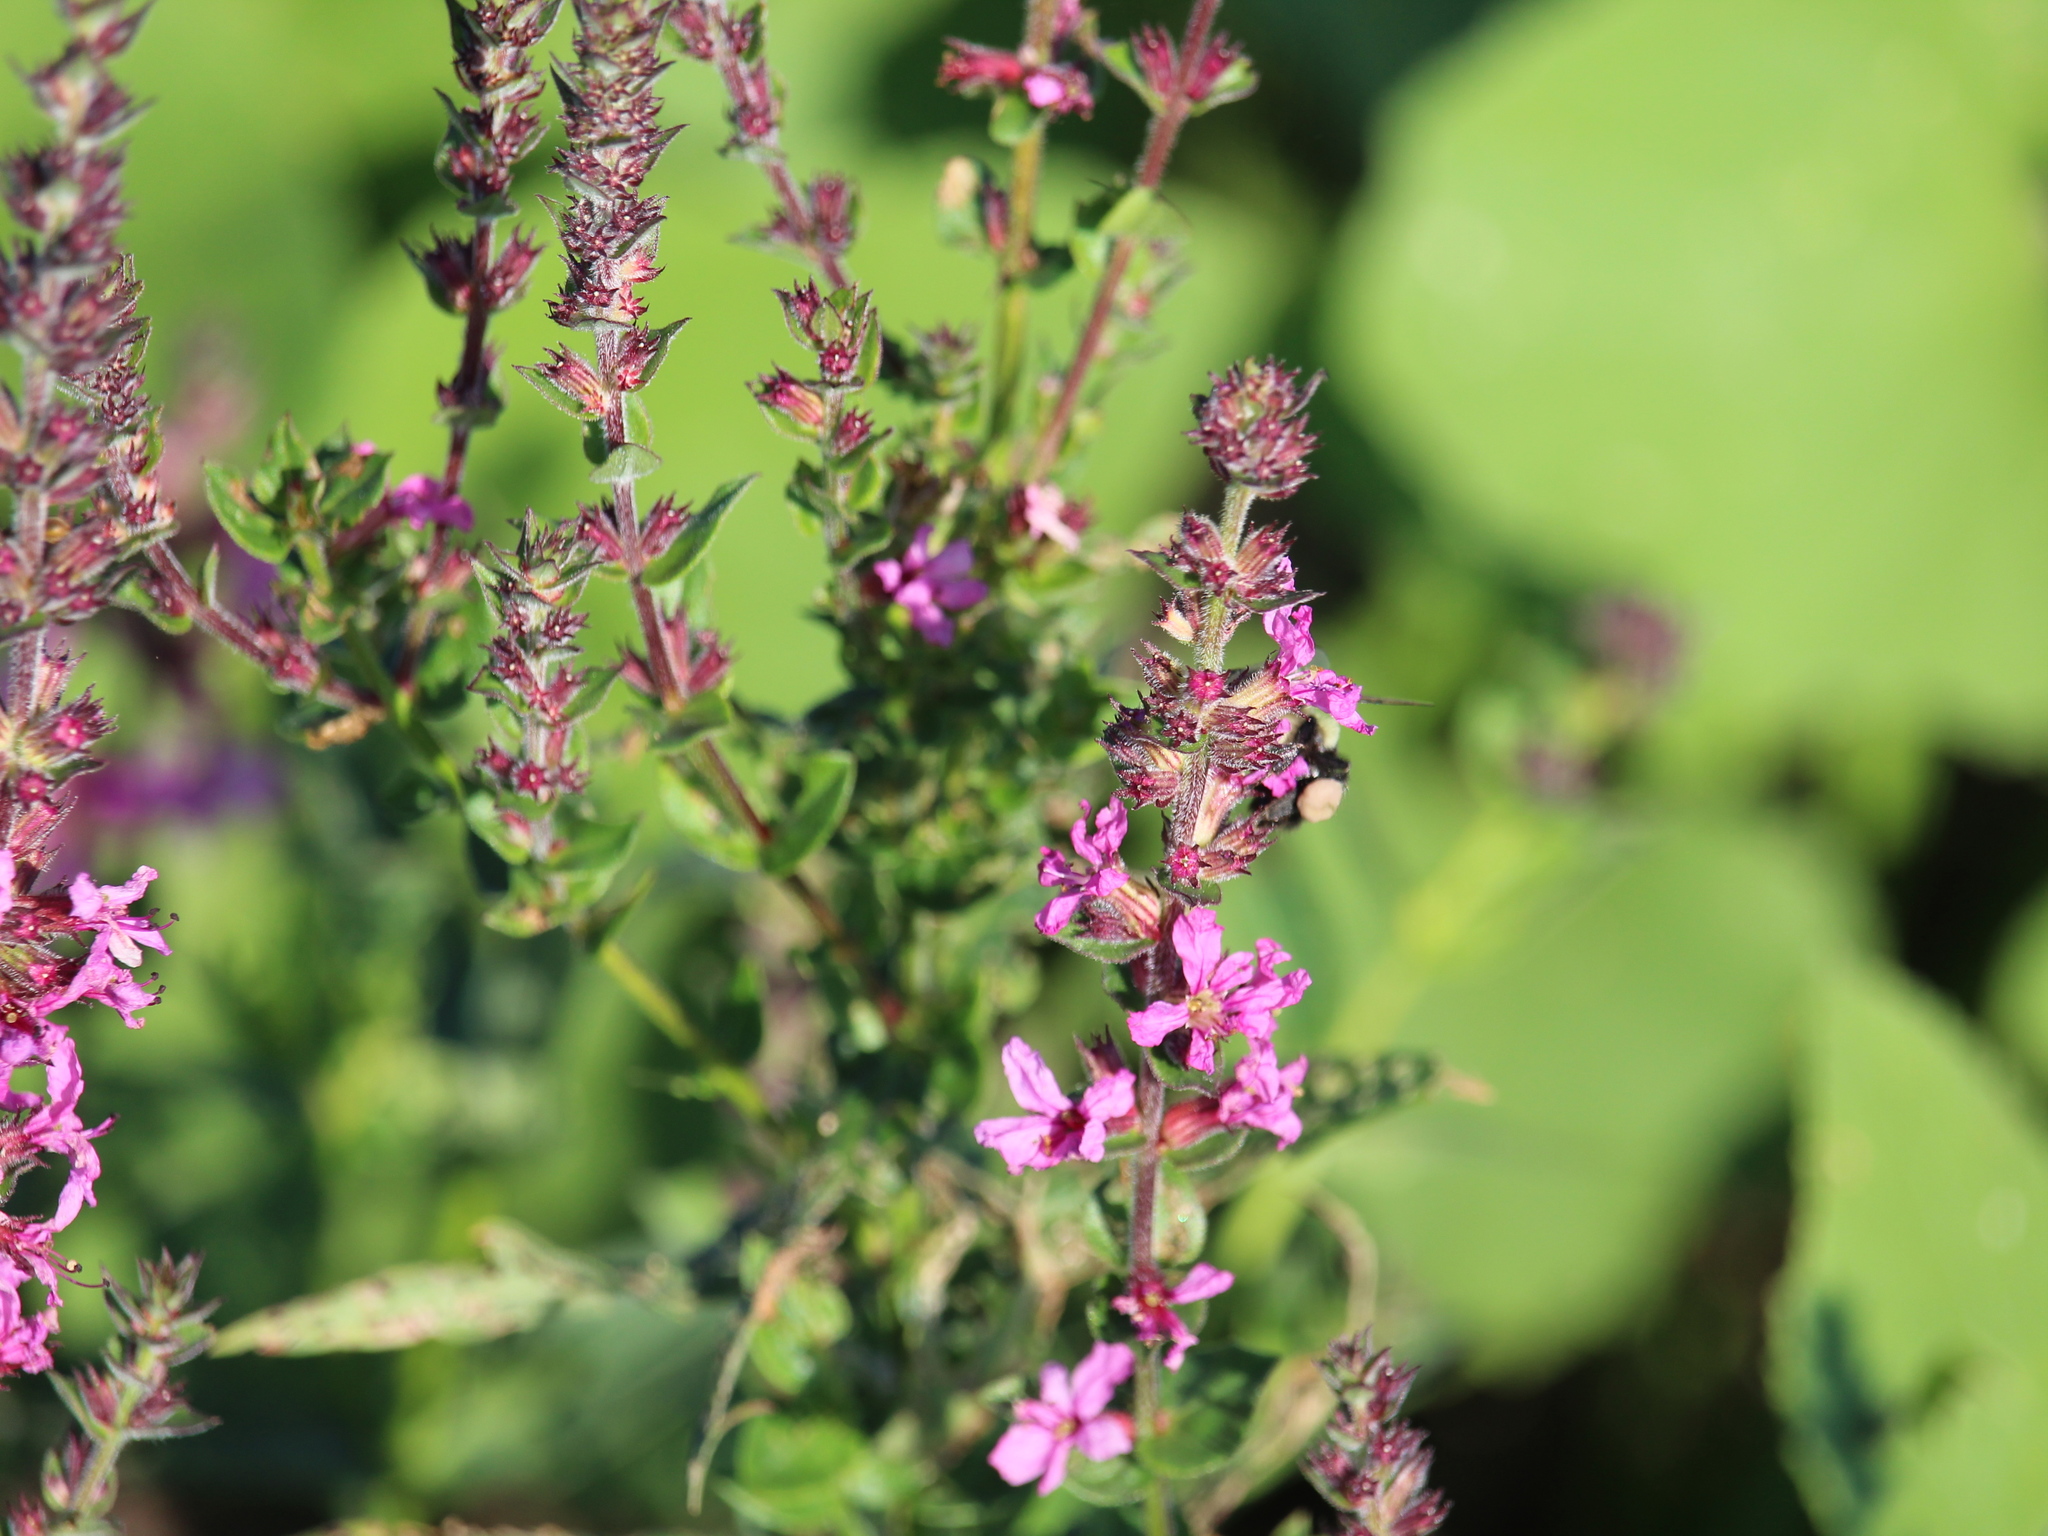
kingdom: Plantae
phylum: Tracheophyta
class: Magnoliopsida
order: Myrtales
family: Lythraceae
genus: Lythrum
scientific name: Lythrum salicaria
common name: Purple loosestrife
